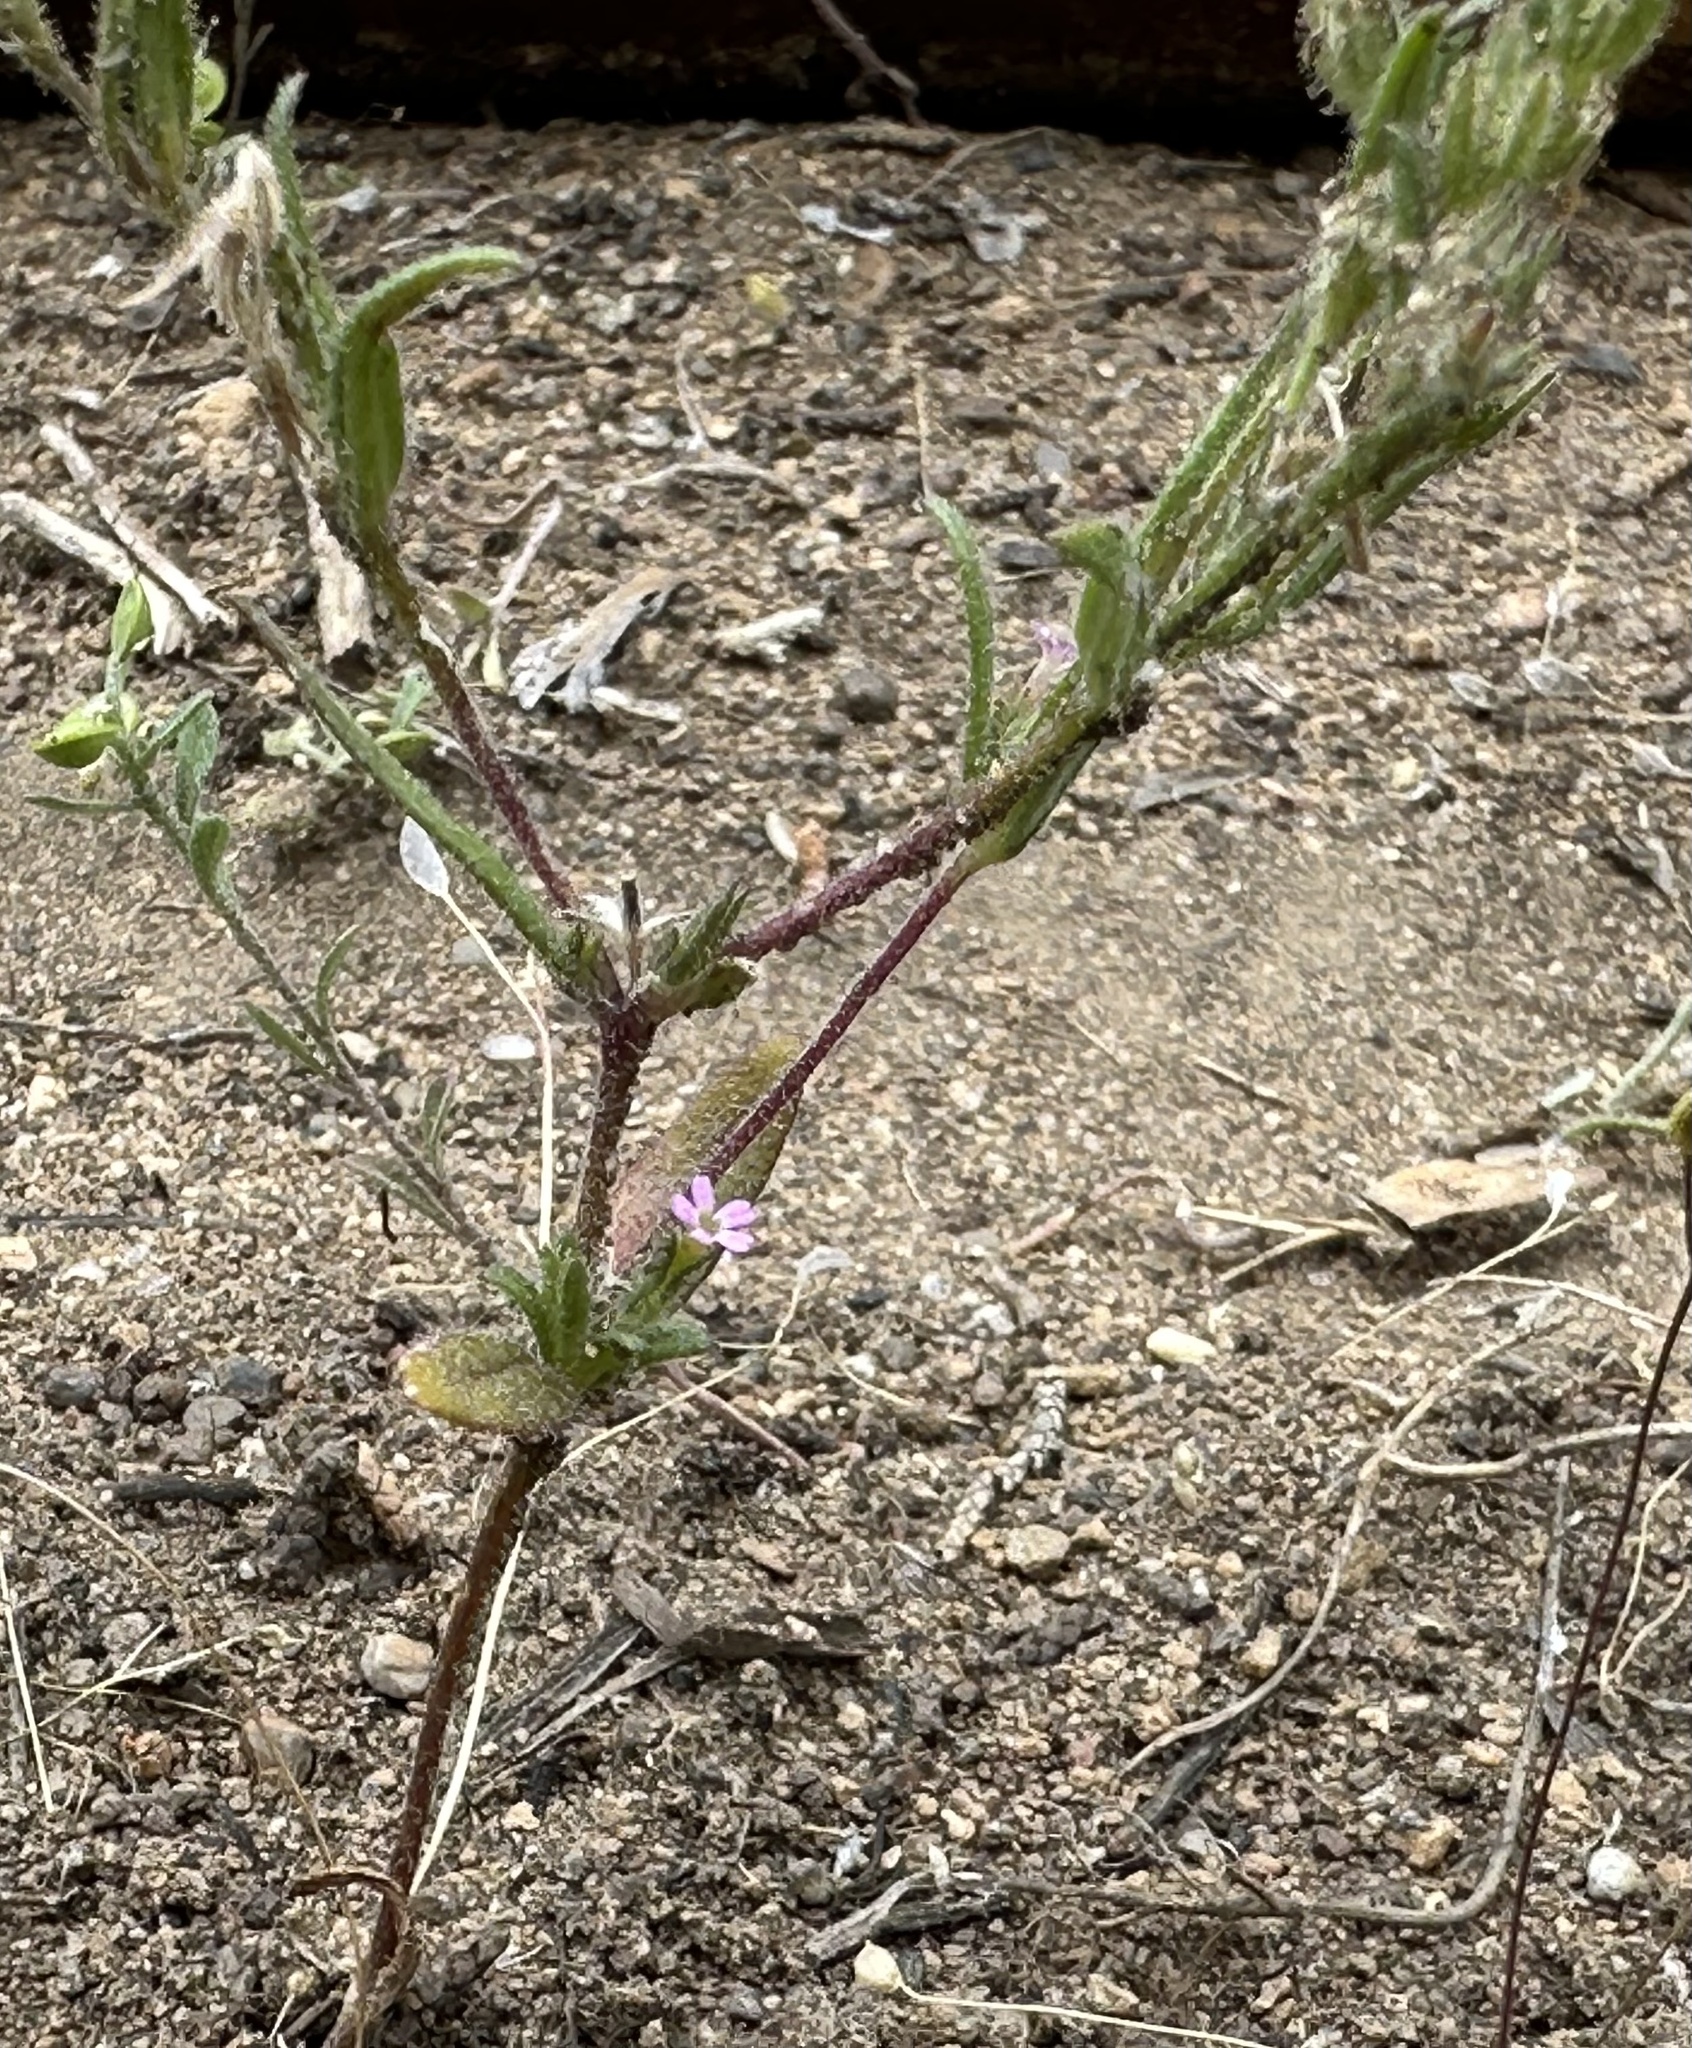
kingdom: Plantae
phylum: Tracheophyta
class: Magnoliopsida
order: Ericales
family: Polemoniaceae
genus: Phlox
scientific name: Phlox gracilis
